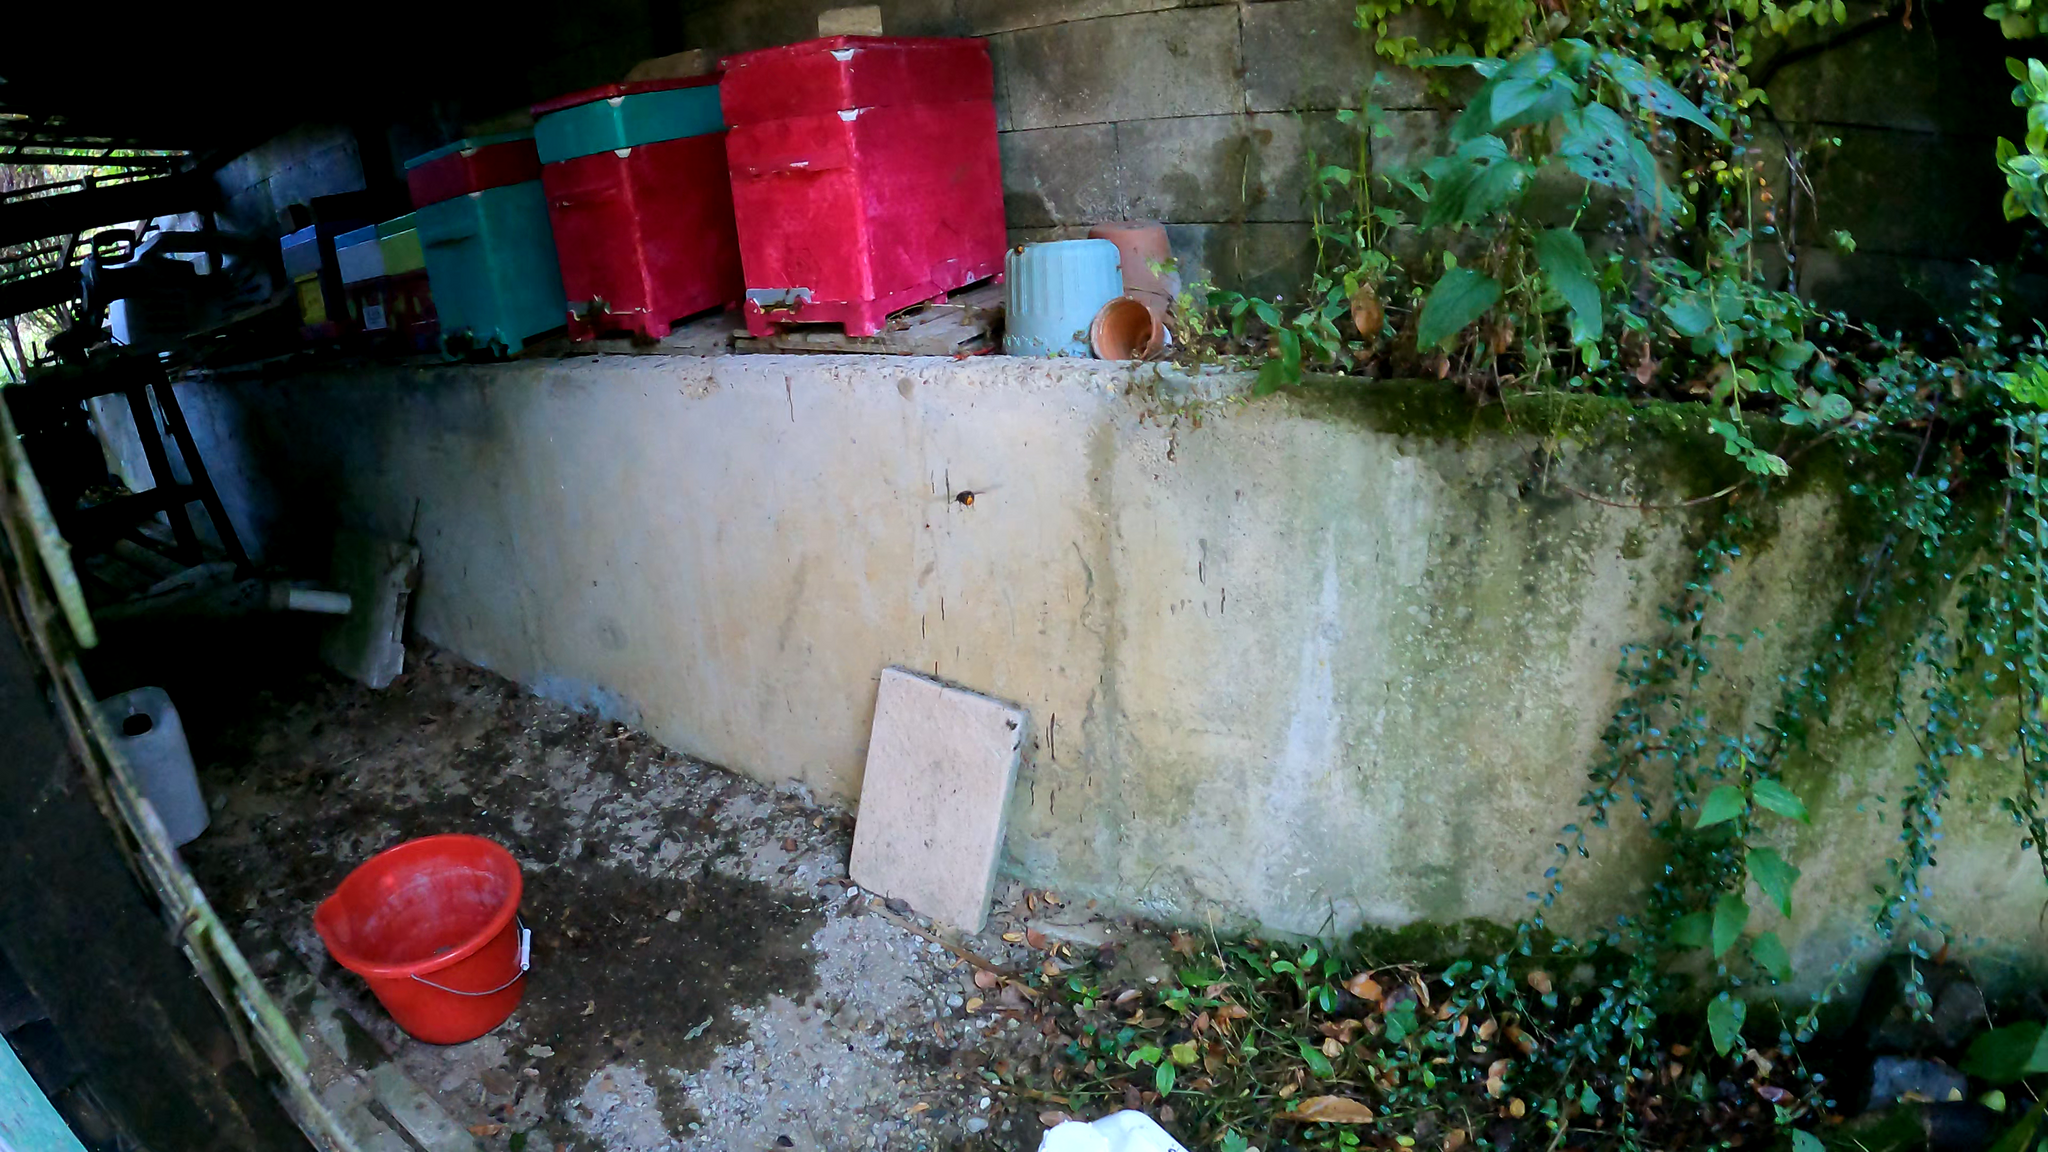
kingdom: Animalia
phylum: Arthropoda
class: Insecta
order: Hymenoptera
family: Vespidae
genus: Vespa
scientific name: Vespa velutina
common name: Asian hornet
